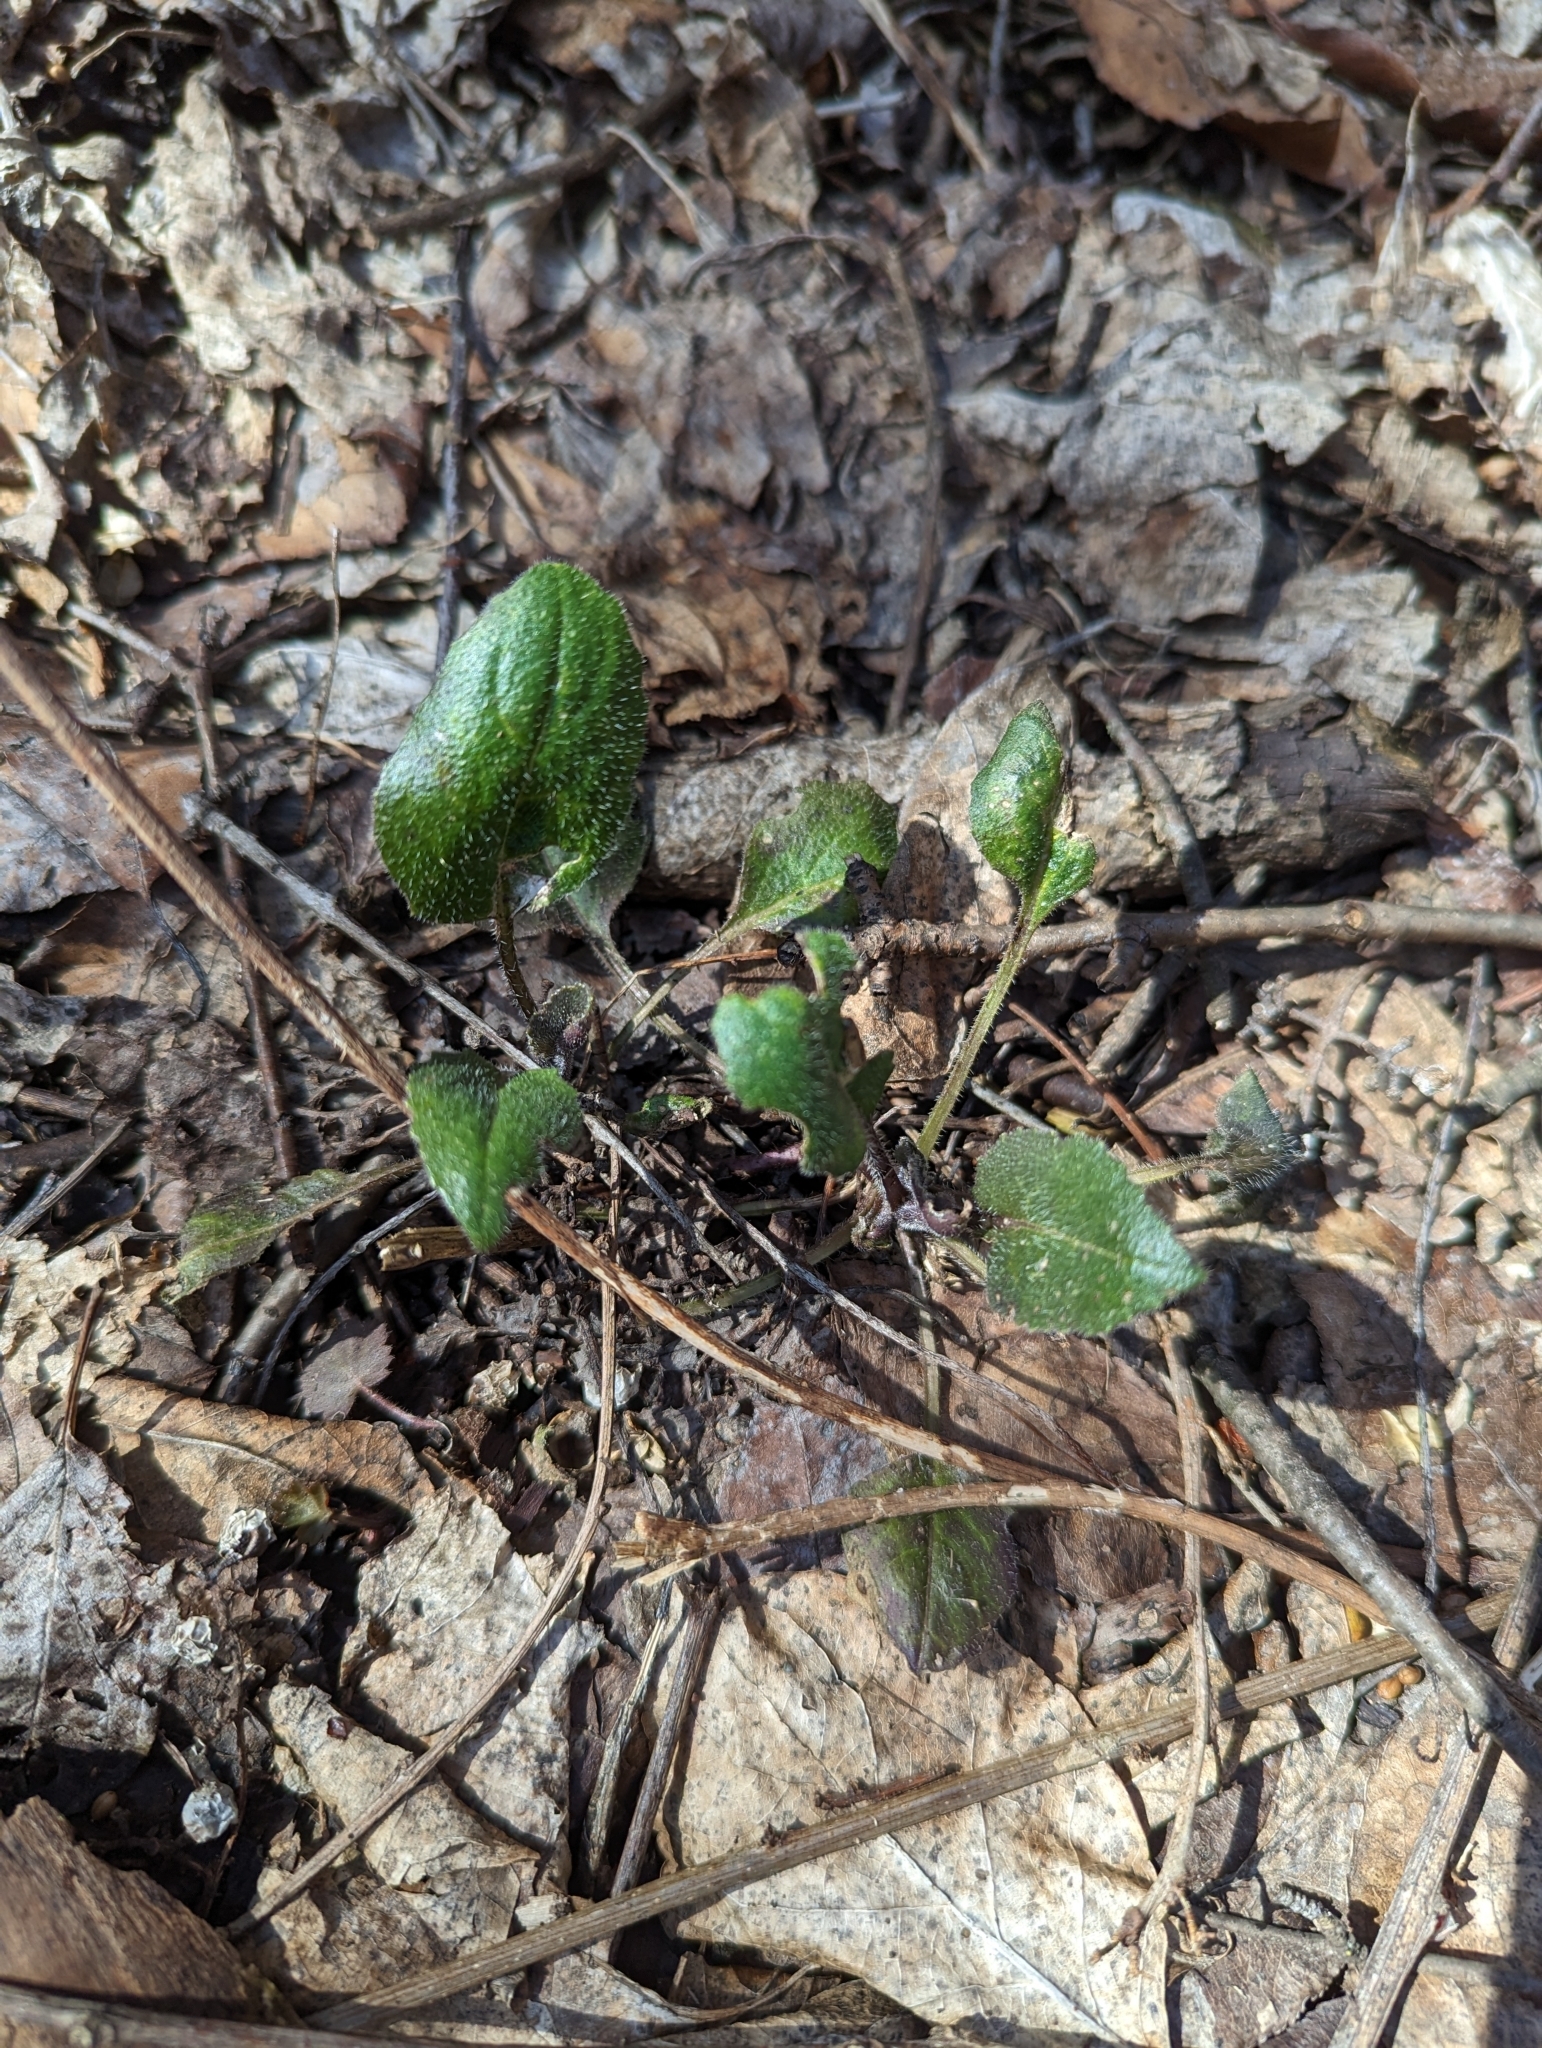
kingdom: Plantae
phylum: Tracheophyta
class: Magnoliopsida
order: Brassicales
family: Brassicaceae
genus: Hesperis
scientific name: Hesperis matronalis
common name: Dame's-violet
